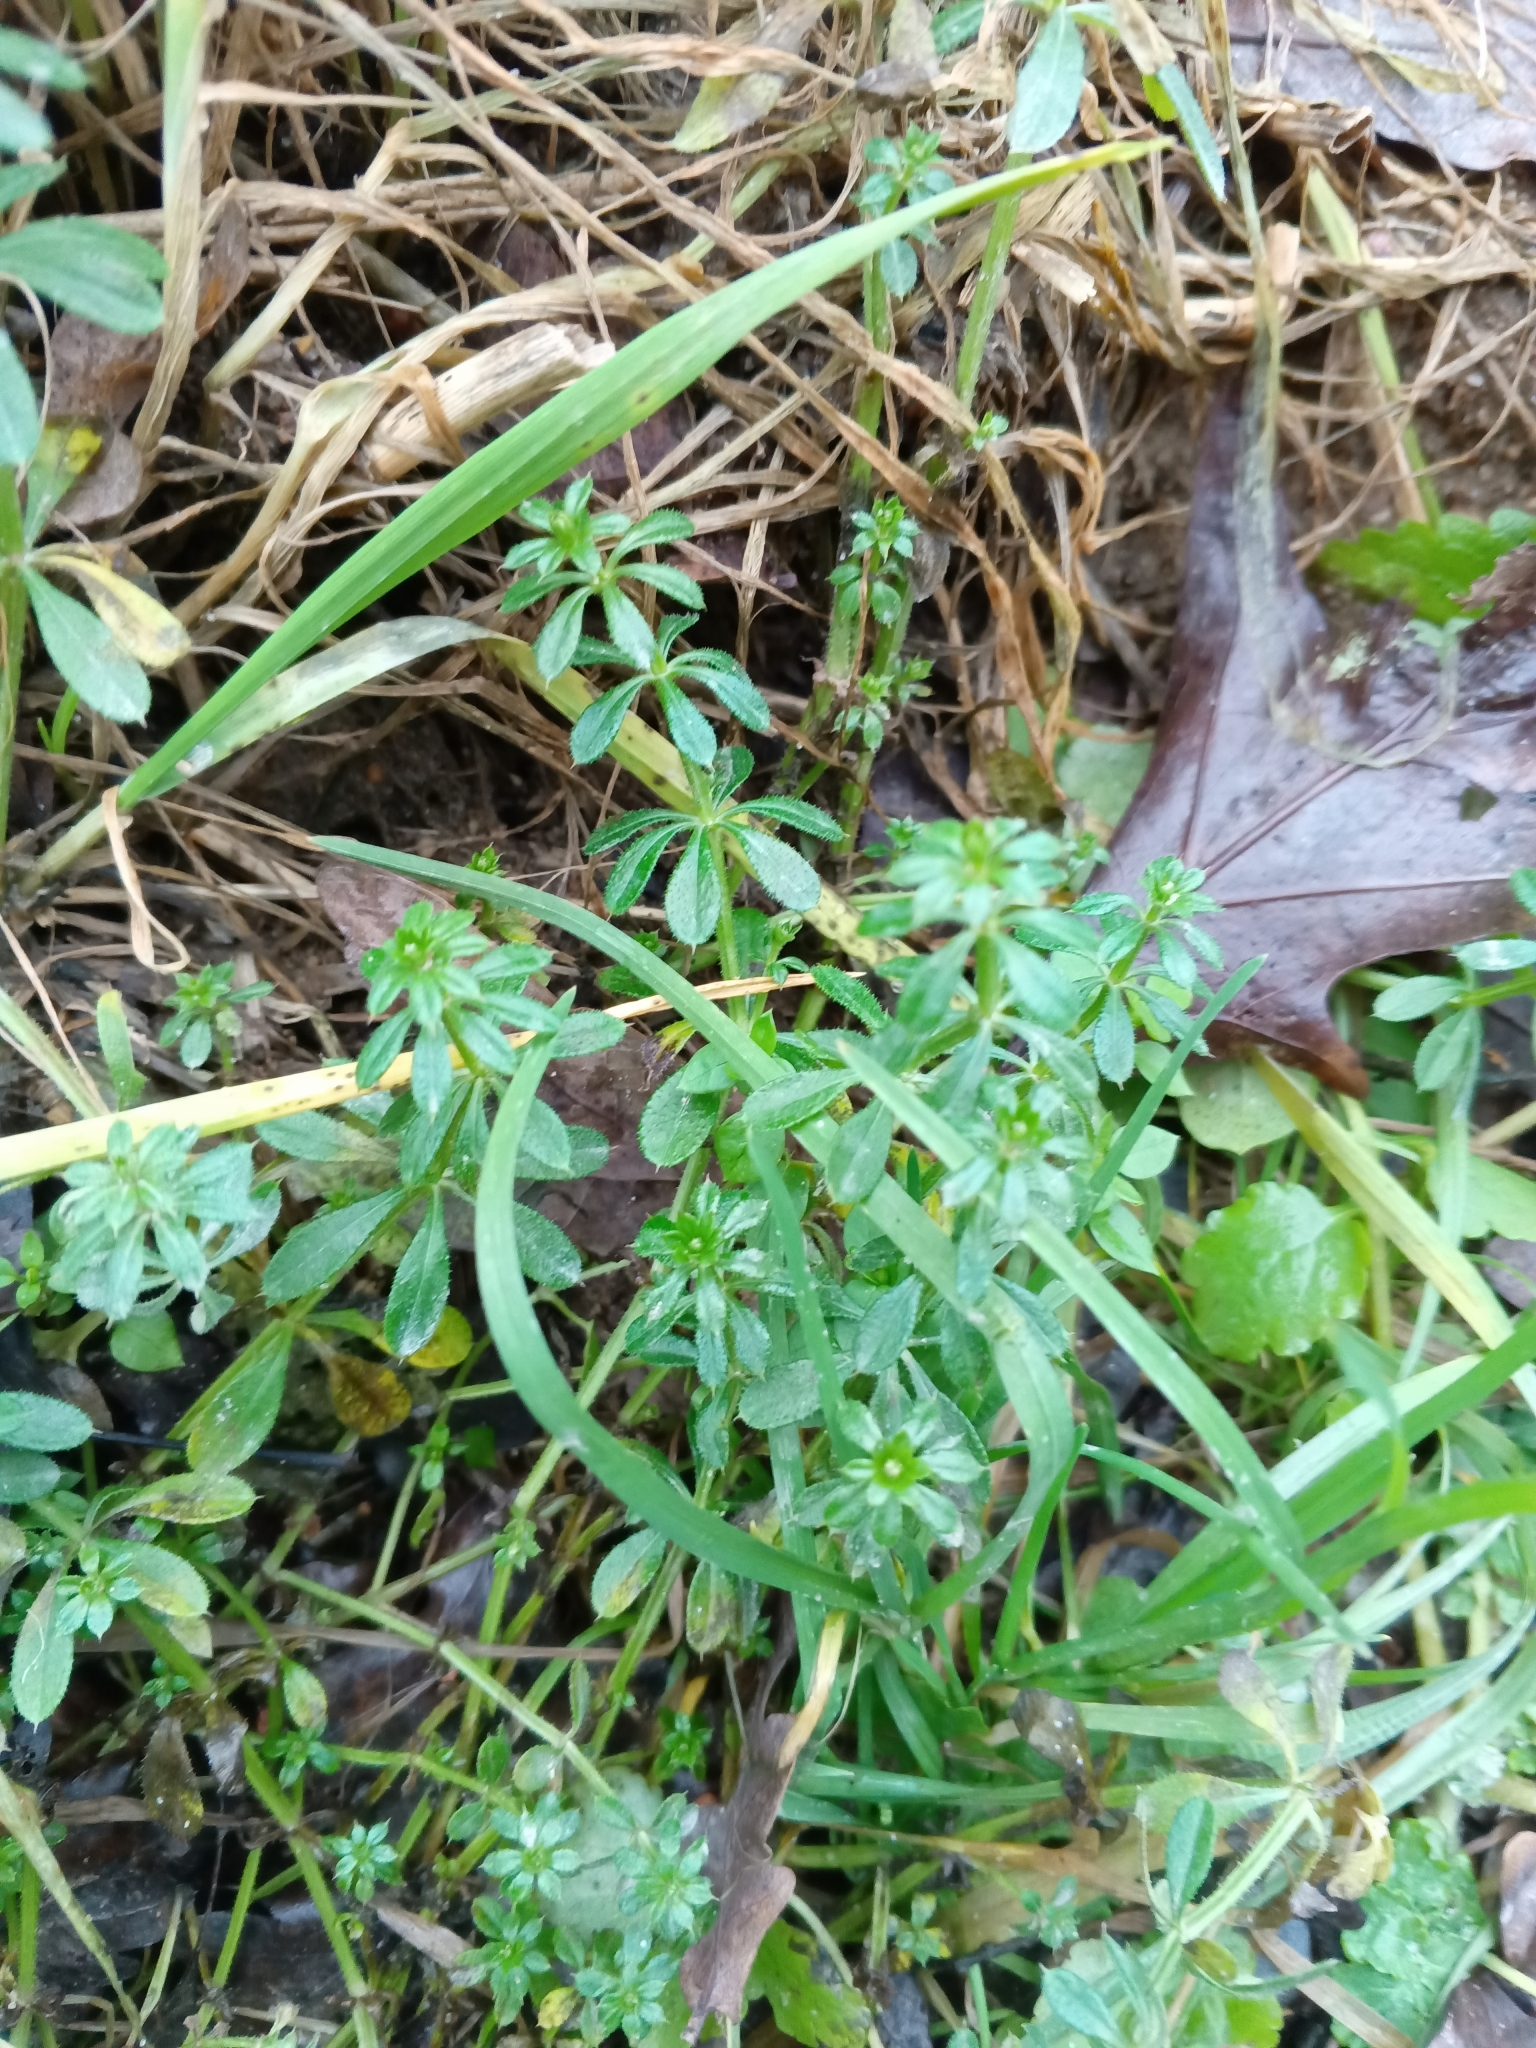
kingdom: Plantae
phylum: Tracheophyta
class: Magnoliopsida
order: Gentianales
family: Rubiaceae
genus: Galium
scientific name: Galium aparine
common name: Cleavers
